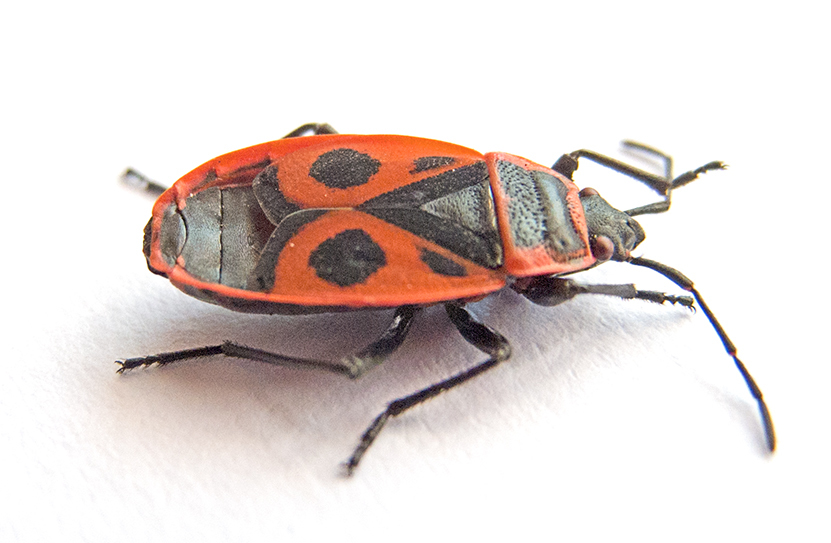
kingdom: Animalia
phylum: Arthropoda
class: Insecta
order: Hemiptera
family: Pyrrhocoridae
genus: Pyrrhocoris
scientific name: Pyrrhocoris apterus
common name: Firebug
